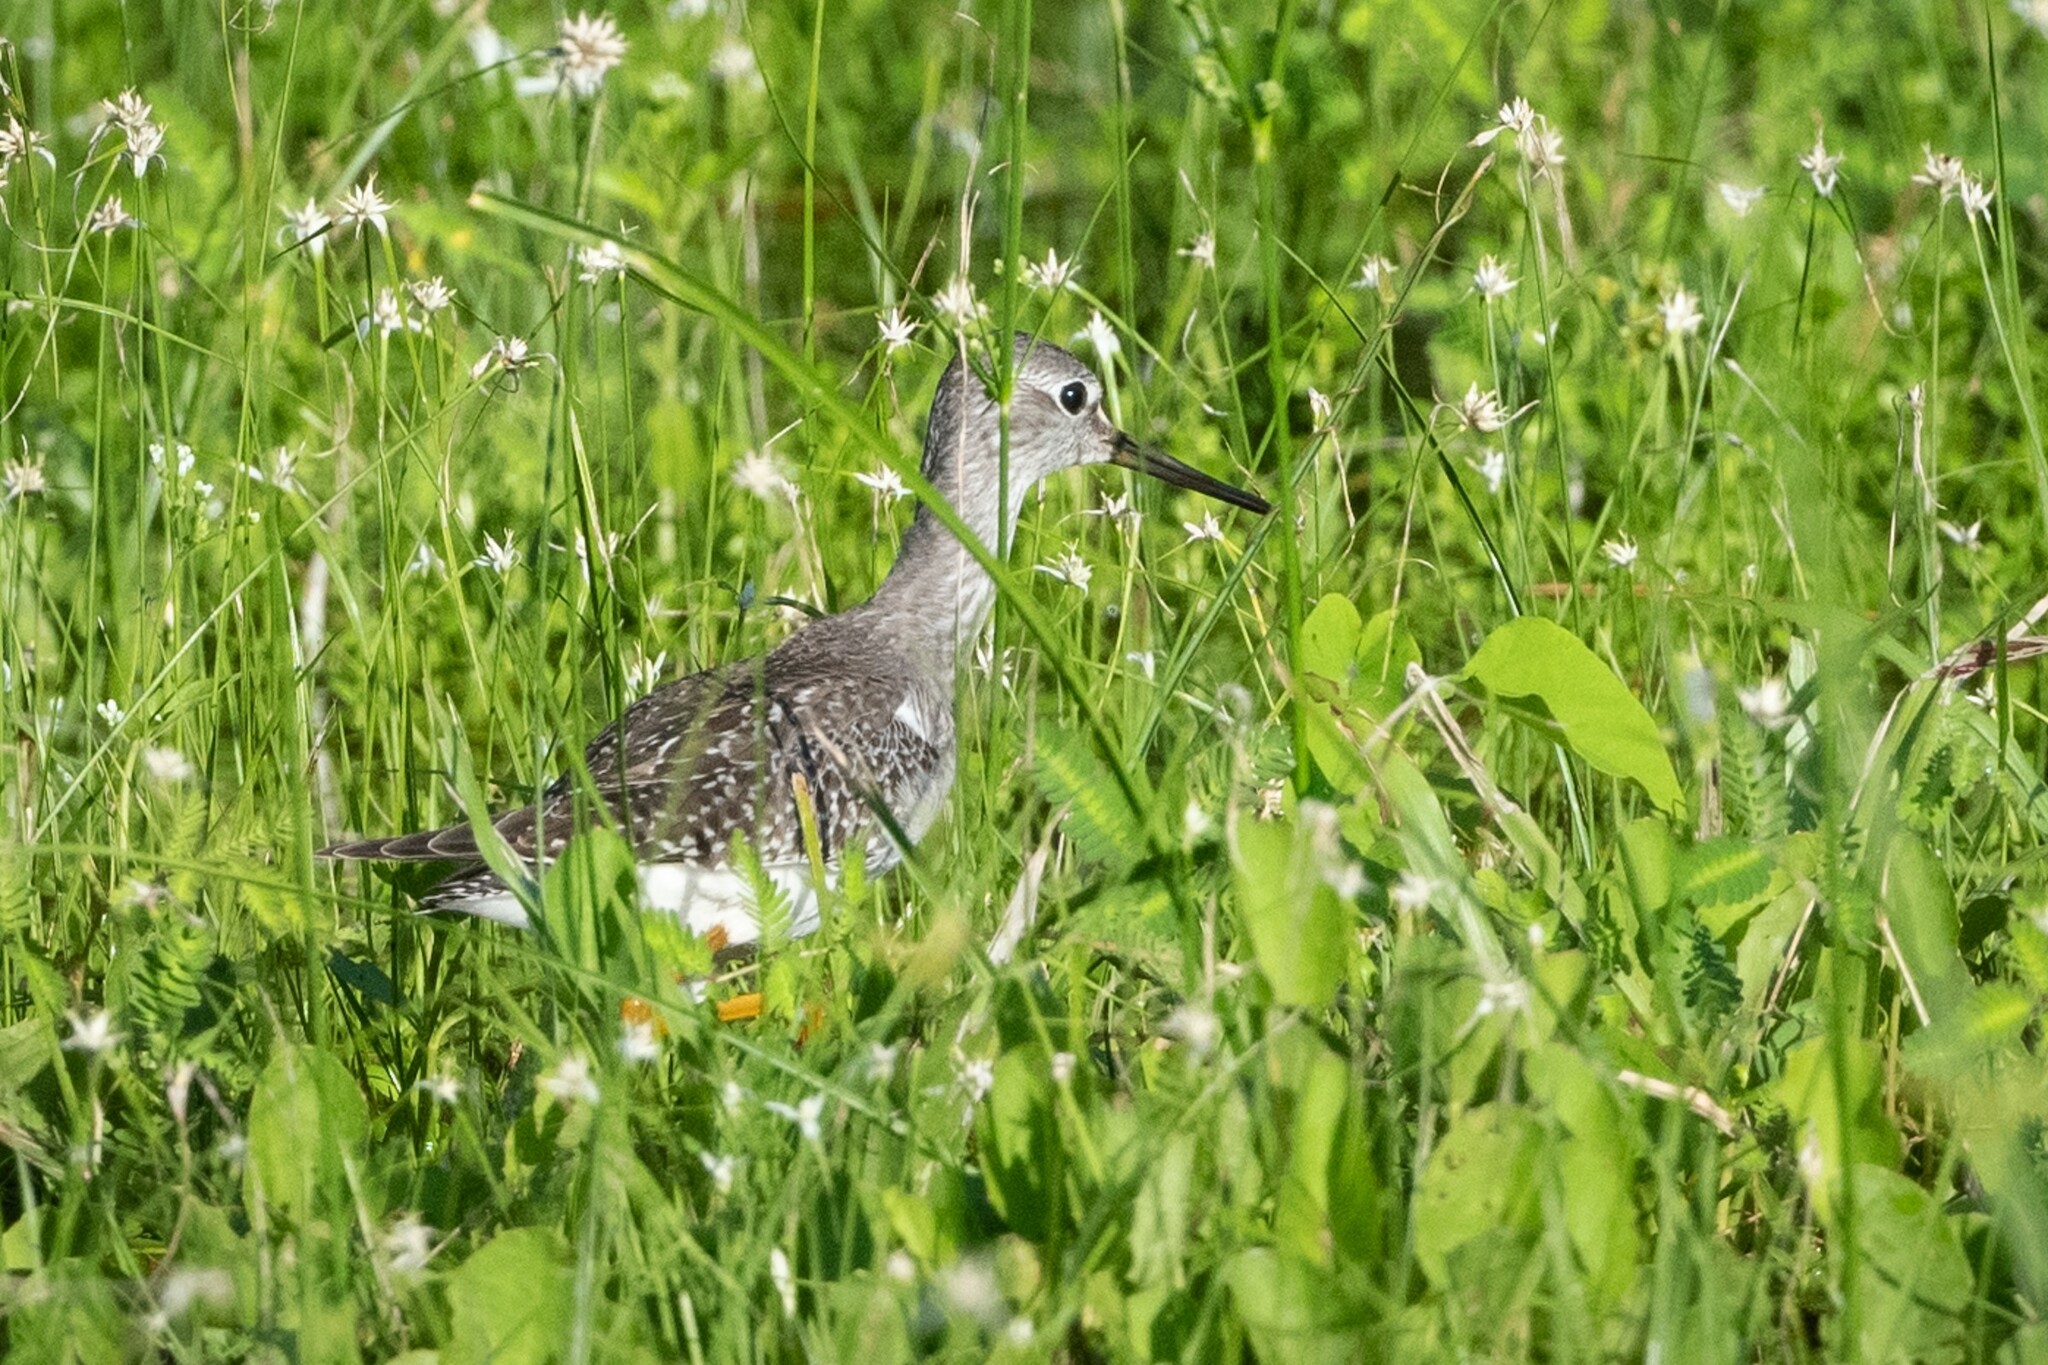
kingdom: Animalia
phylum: Chordata
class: Aves
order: Charadriiformes
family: Scolopacidae
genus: Tringa
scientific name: Tringa flavipes
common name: Lesser yellowlegs
